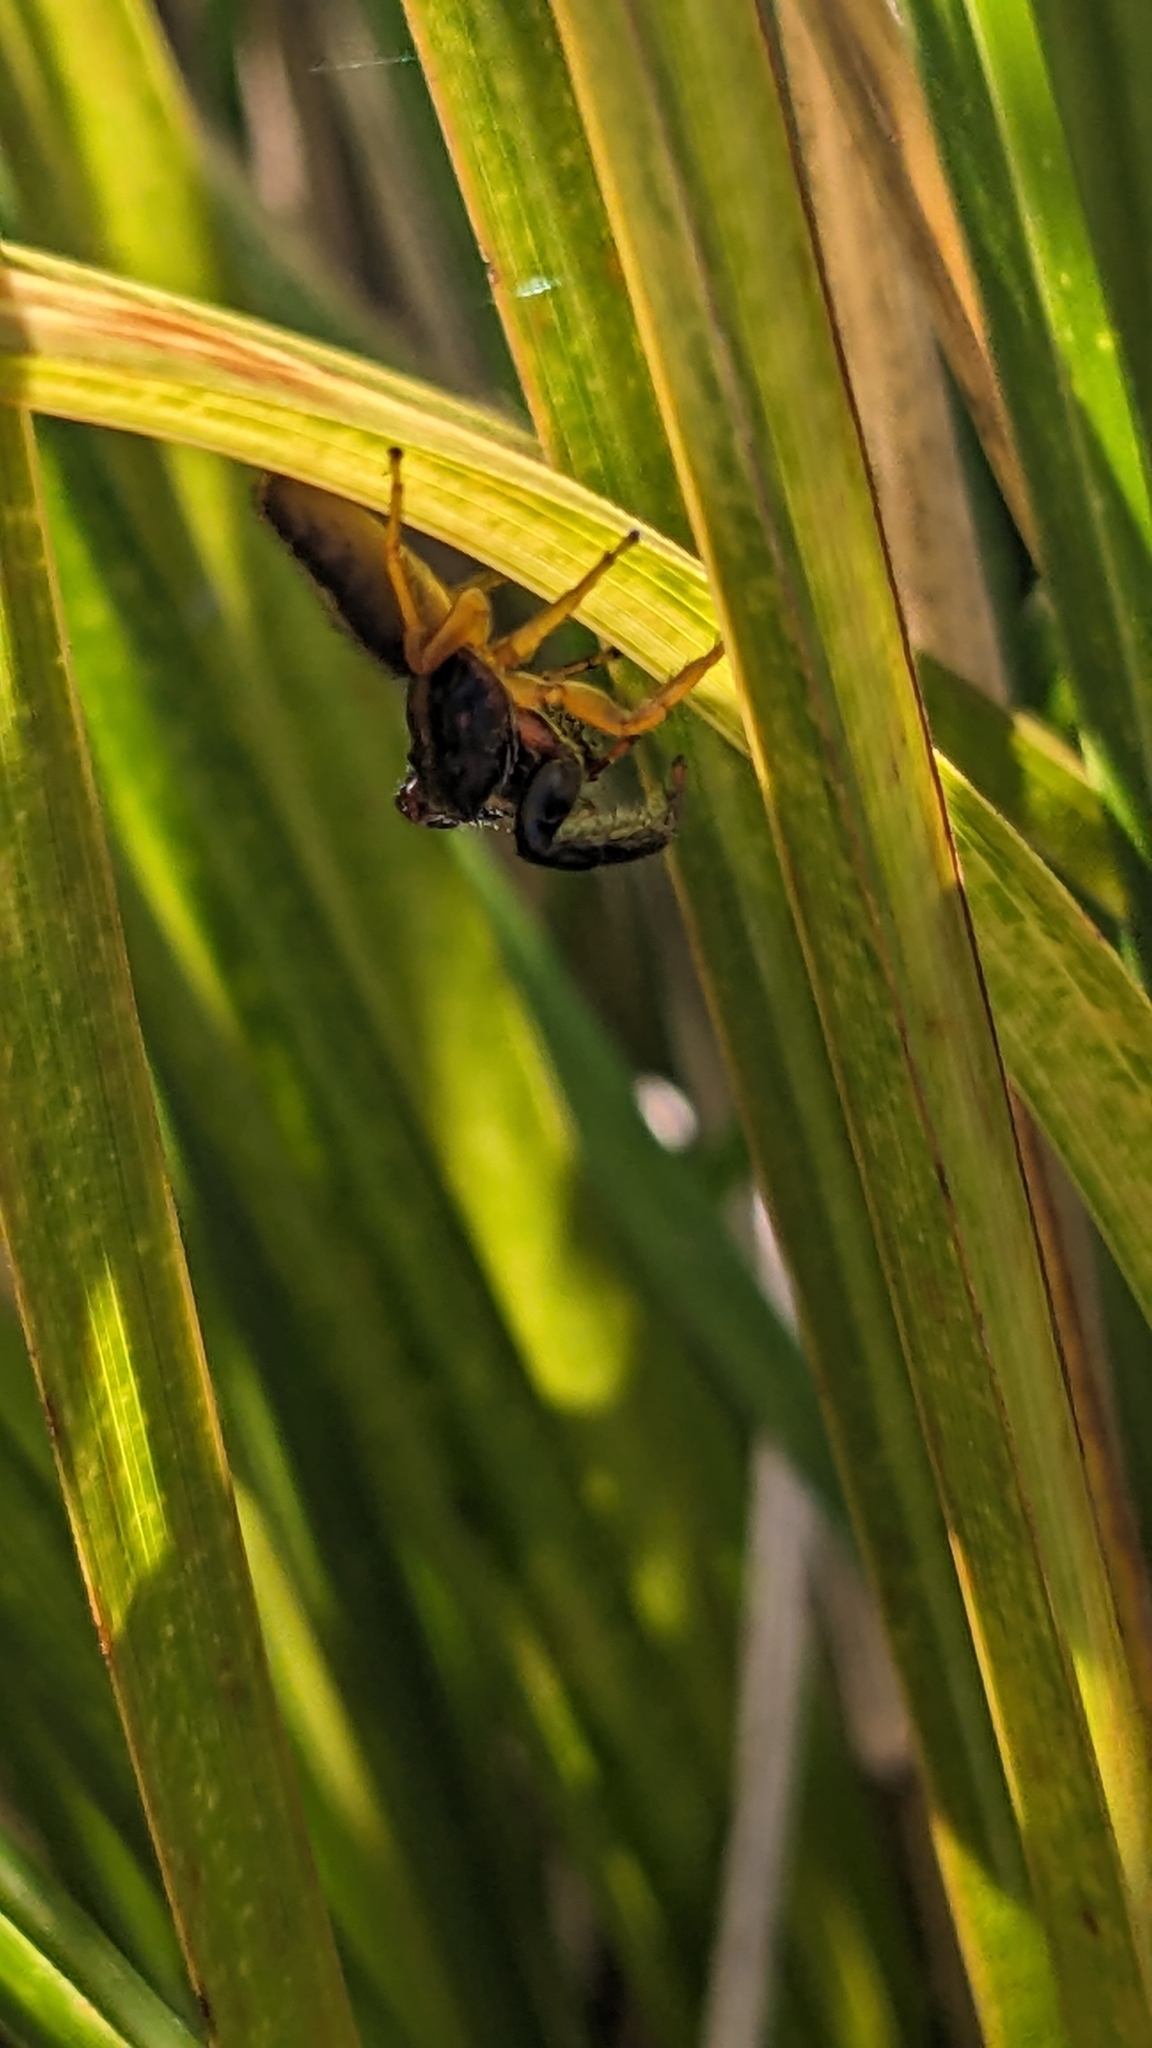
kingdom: Animalia
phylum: Arthropoda
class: Arachnida
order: Araneae
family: Salticidae
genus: Trite
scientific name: Trite planiceps
